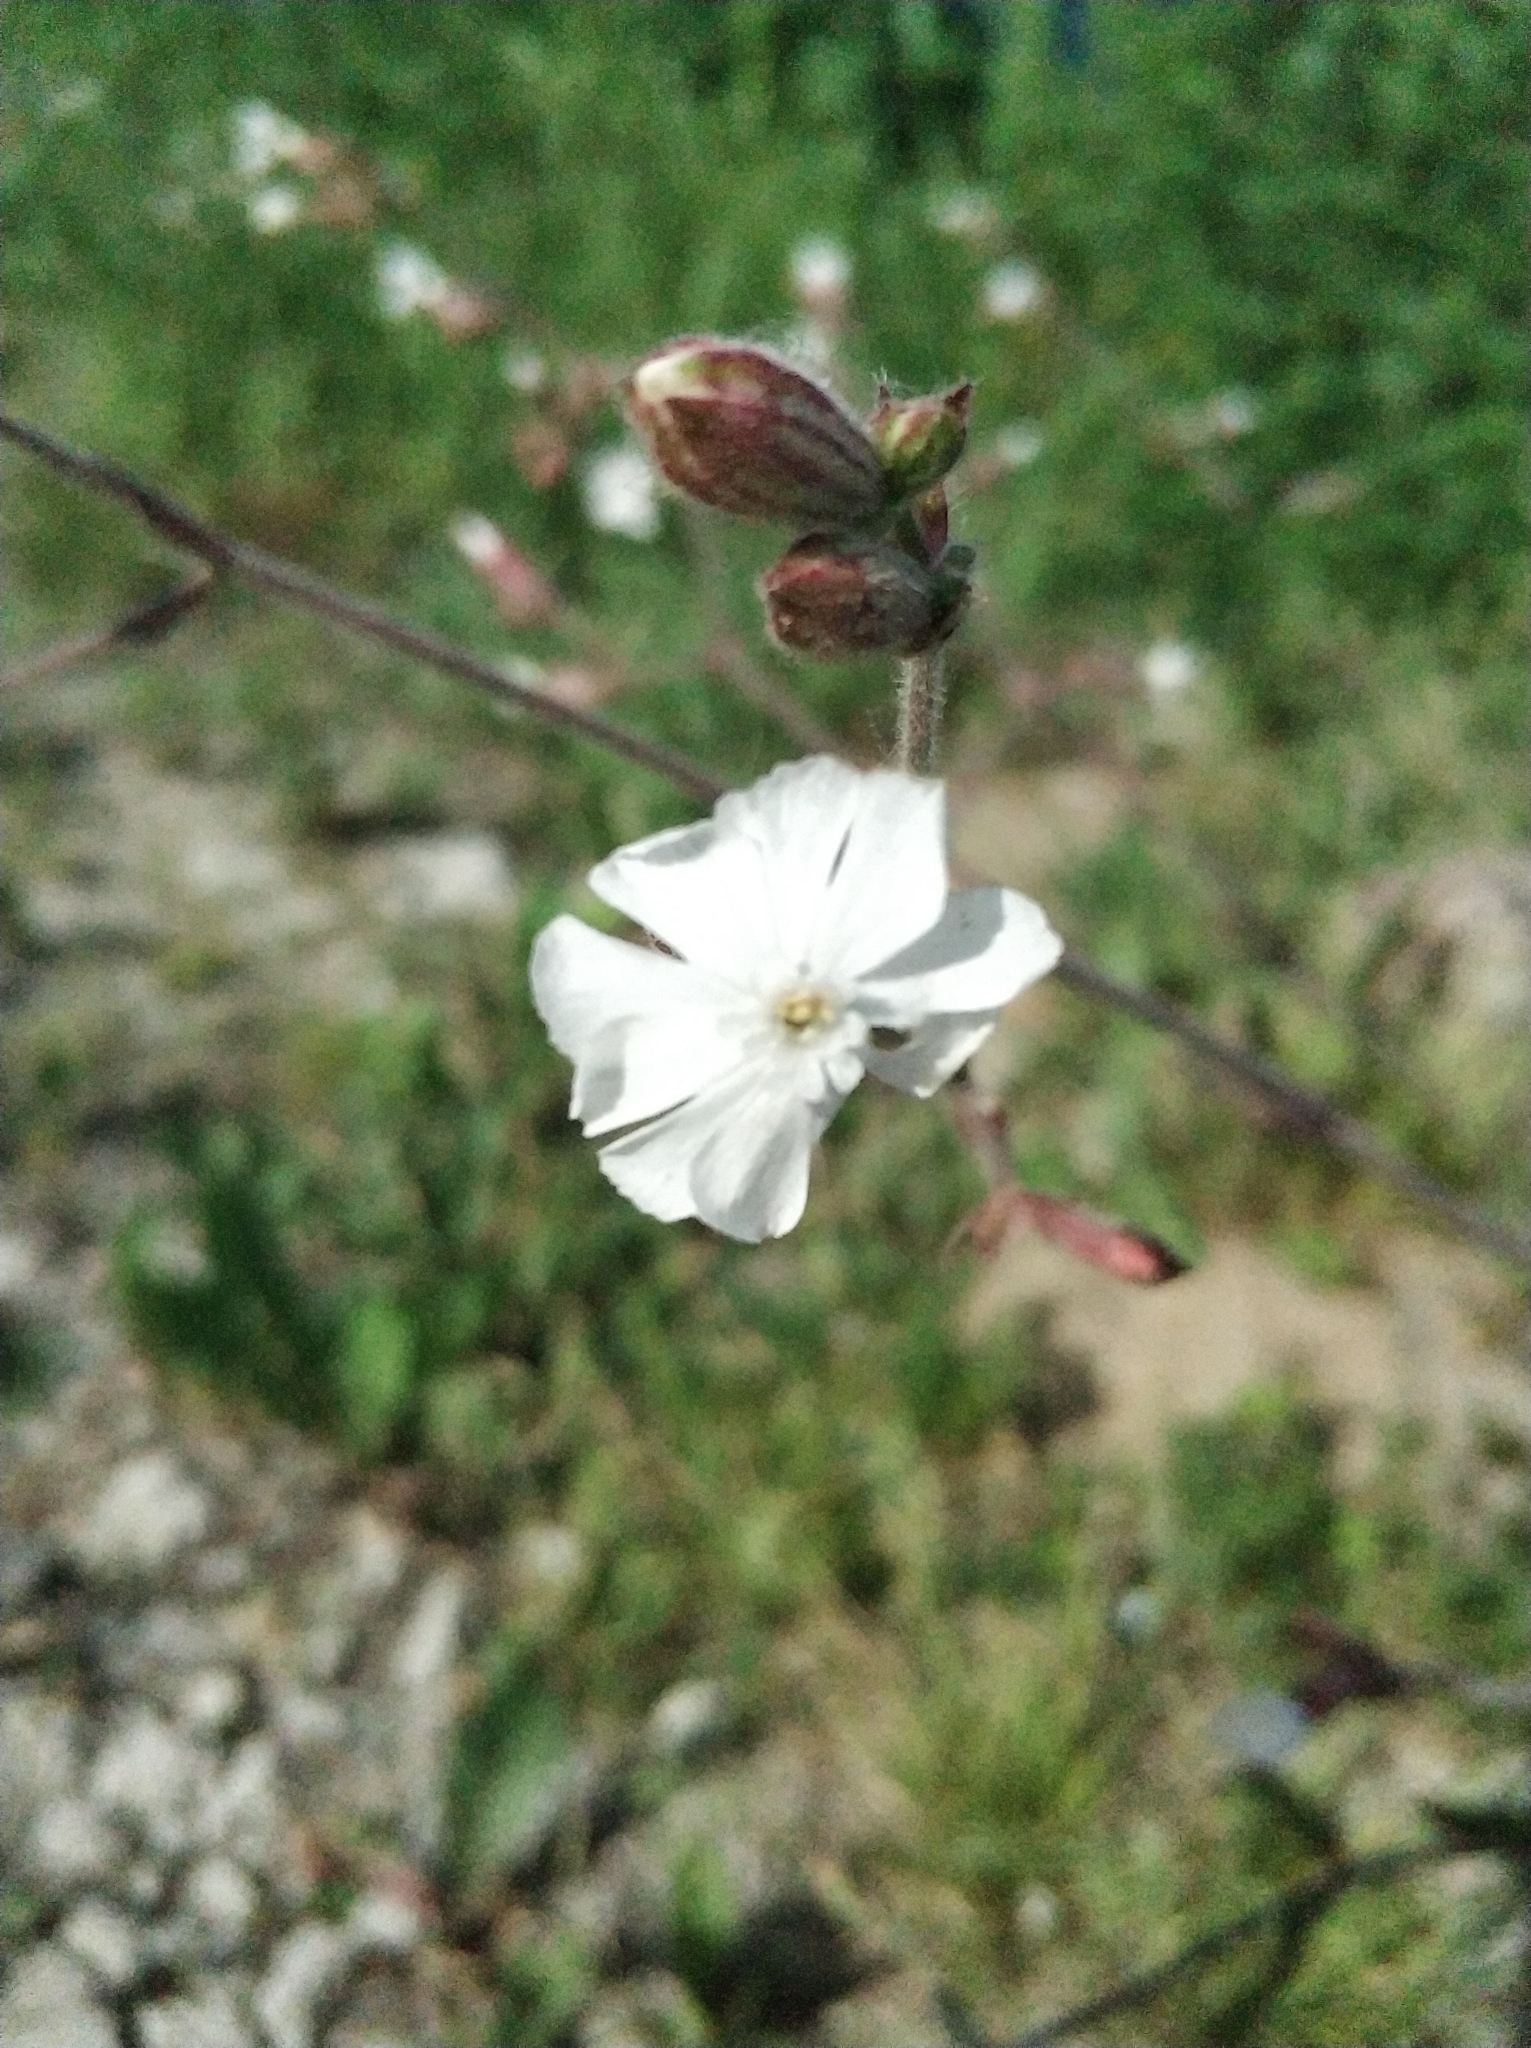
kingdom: Plantae
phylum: Tracheophyta
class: Magnoliopsida
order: Caryophyllales
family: Caryophyllaceae
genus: Silene
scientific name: Silene latifolia
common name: White campion
